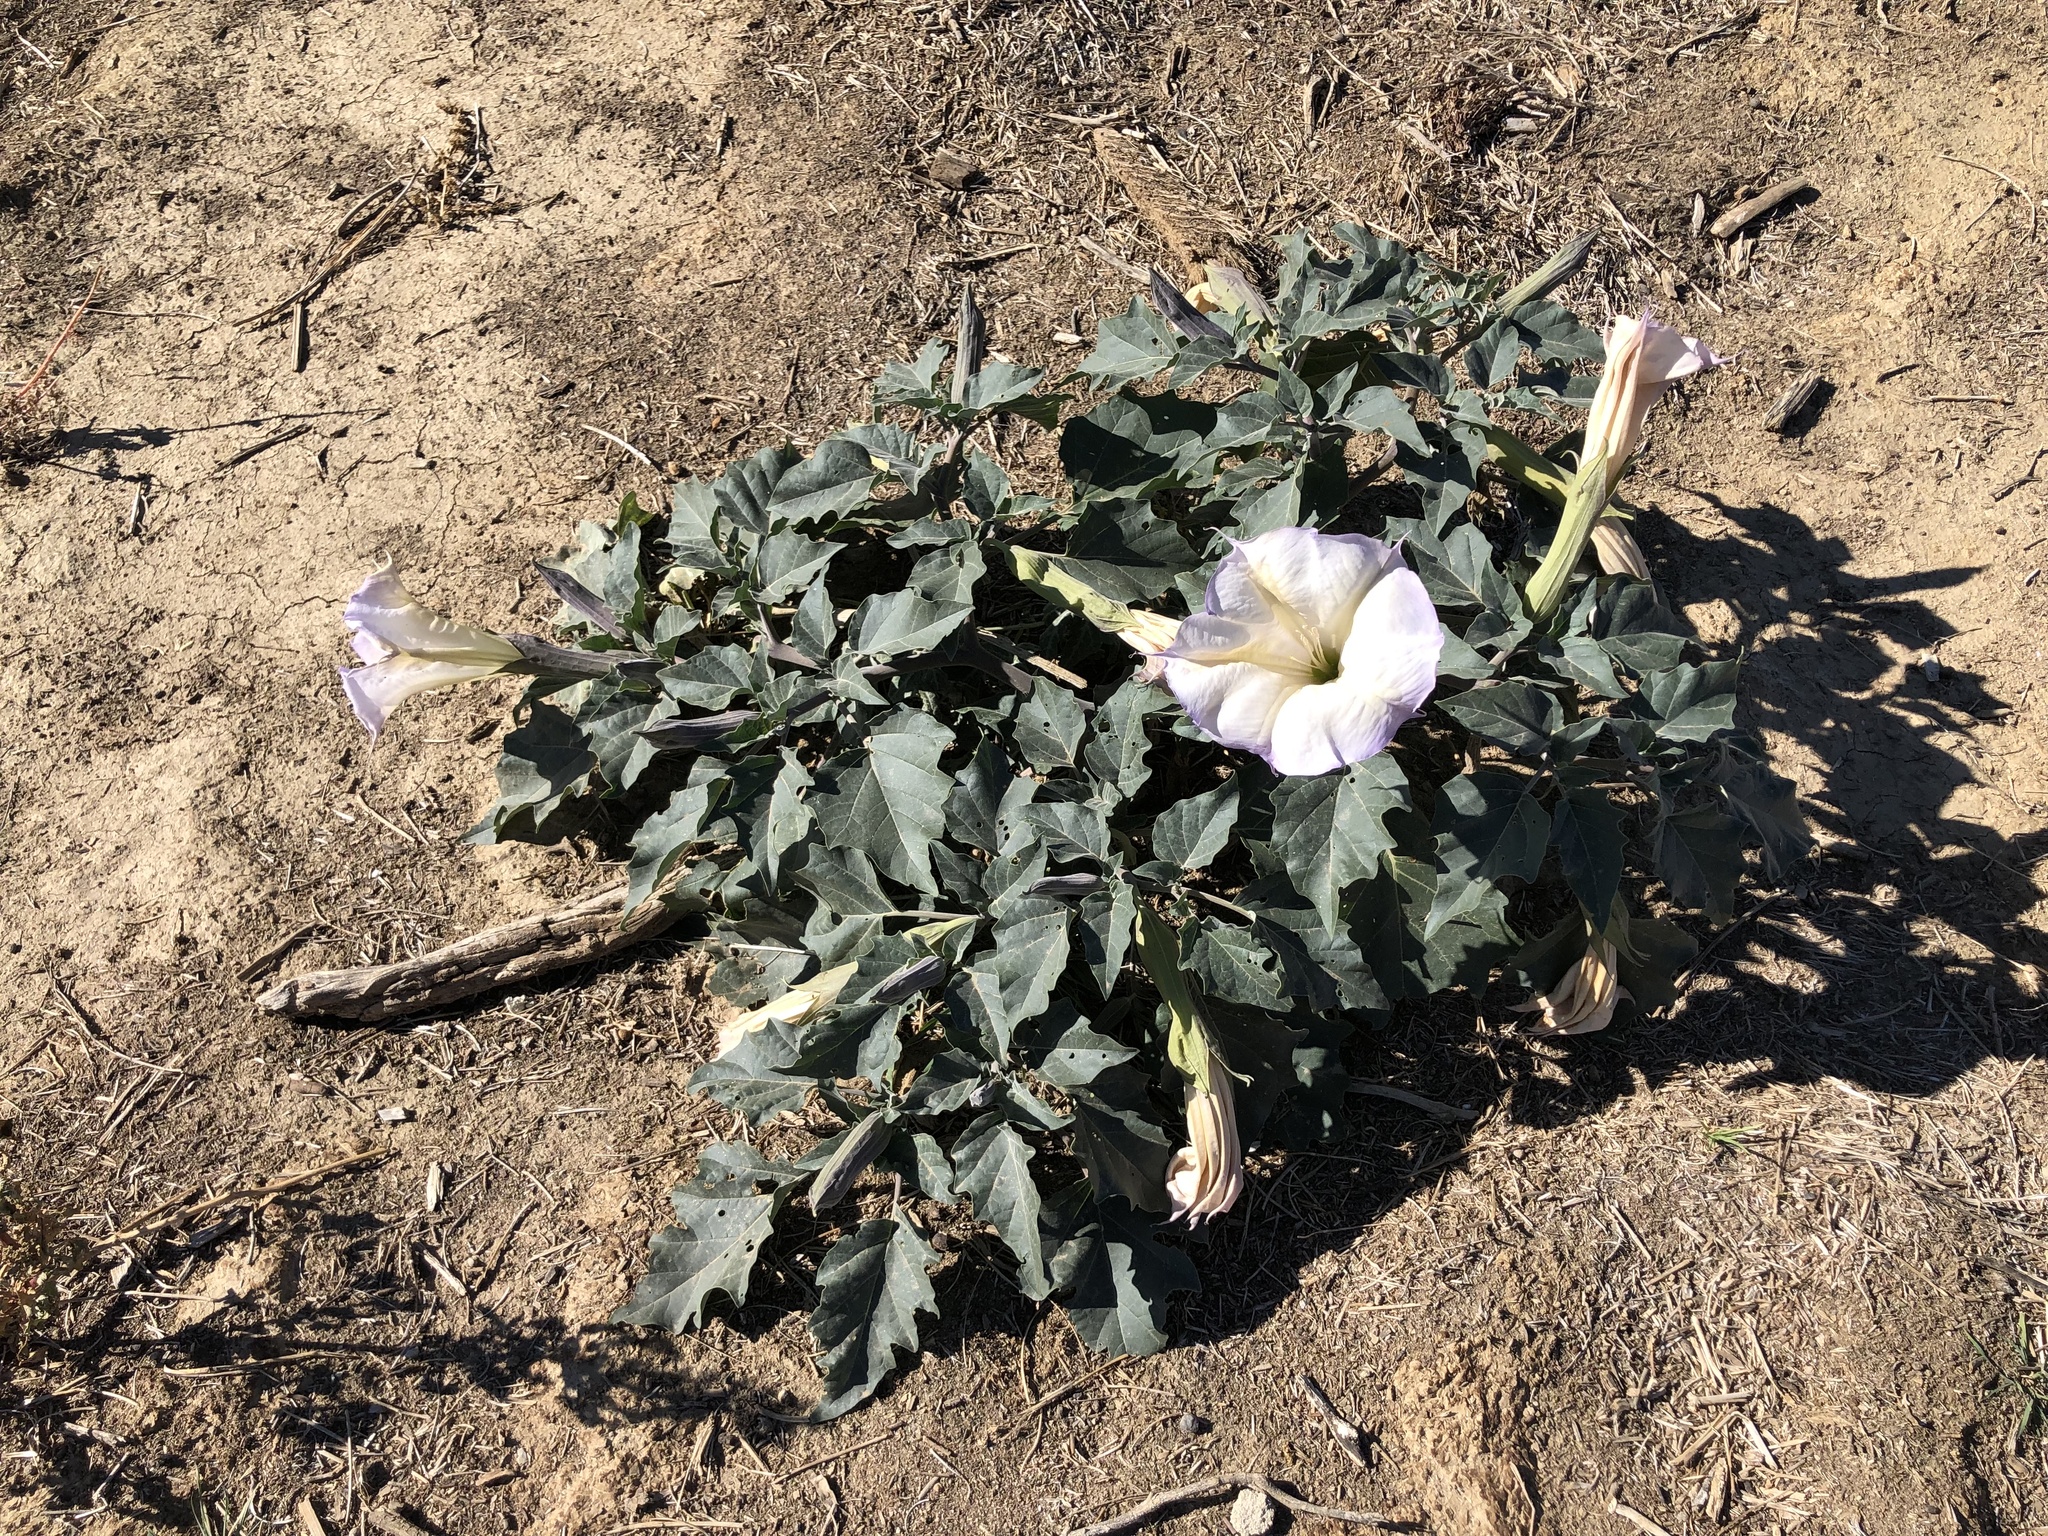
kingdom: Plantae
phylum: Tracheophyta
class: Magnoliopsida
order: Solanales
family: Solanaceae
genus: Datura
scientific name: Datura wrightii
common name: Sacred thorn-apple
